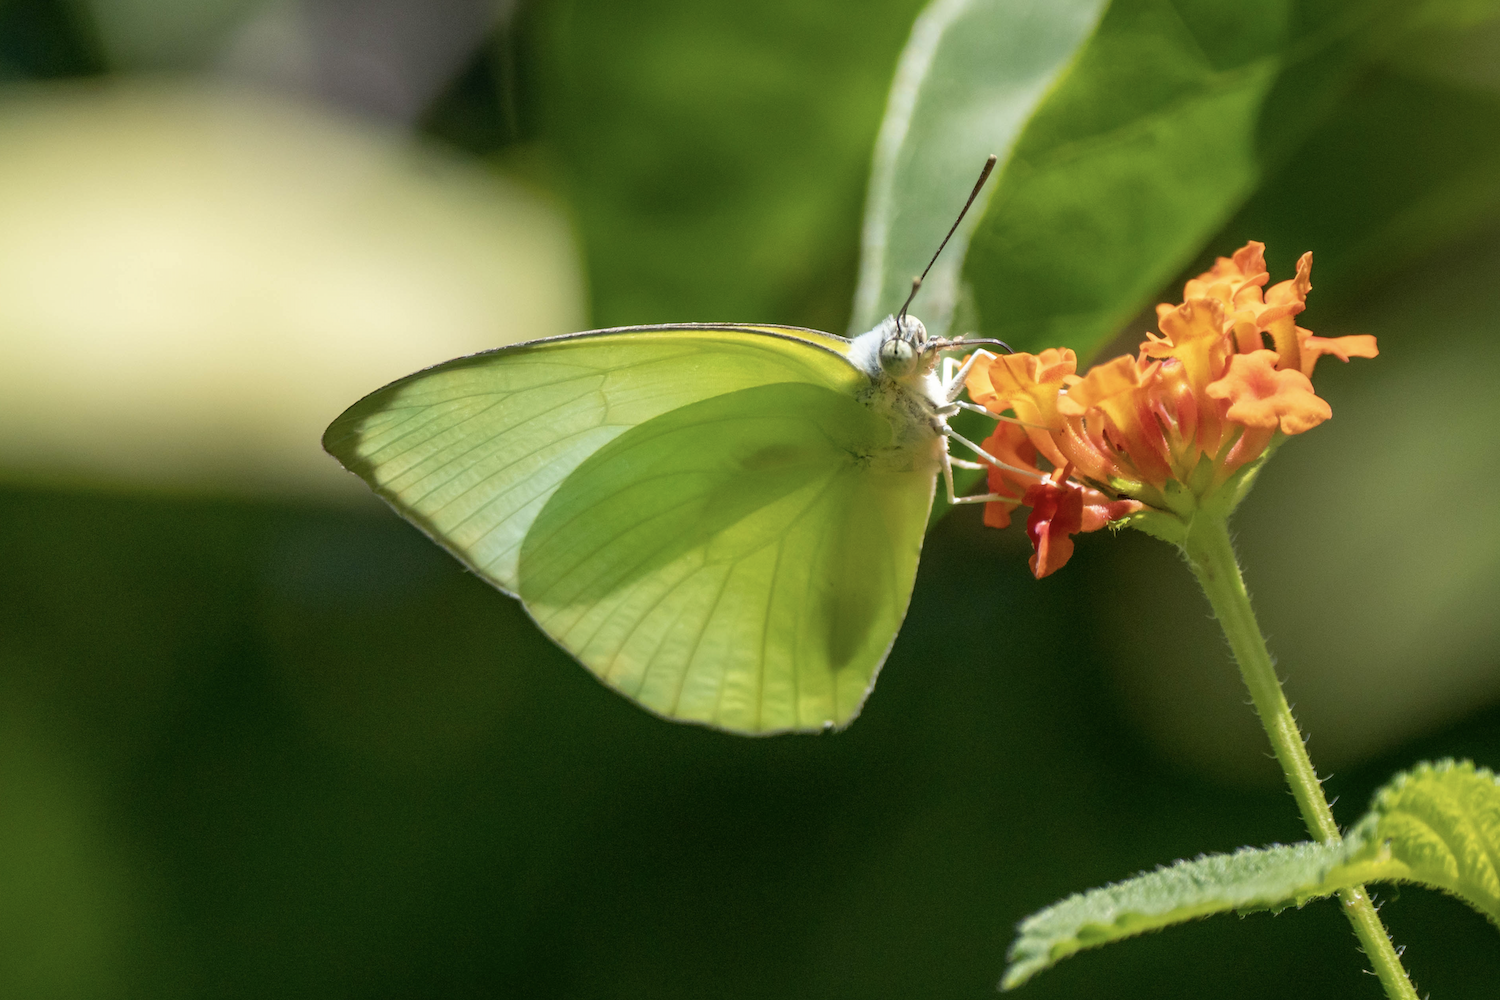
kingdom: Animalia
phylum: Arthropoda
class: Insecta
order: Lepidoptera
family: Pieridae
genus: Catopsilia
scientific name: Catopsilia pomona
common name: Common emigrant
